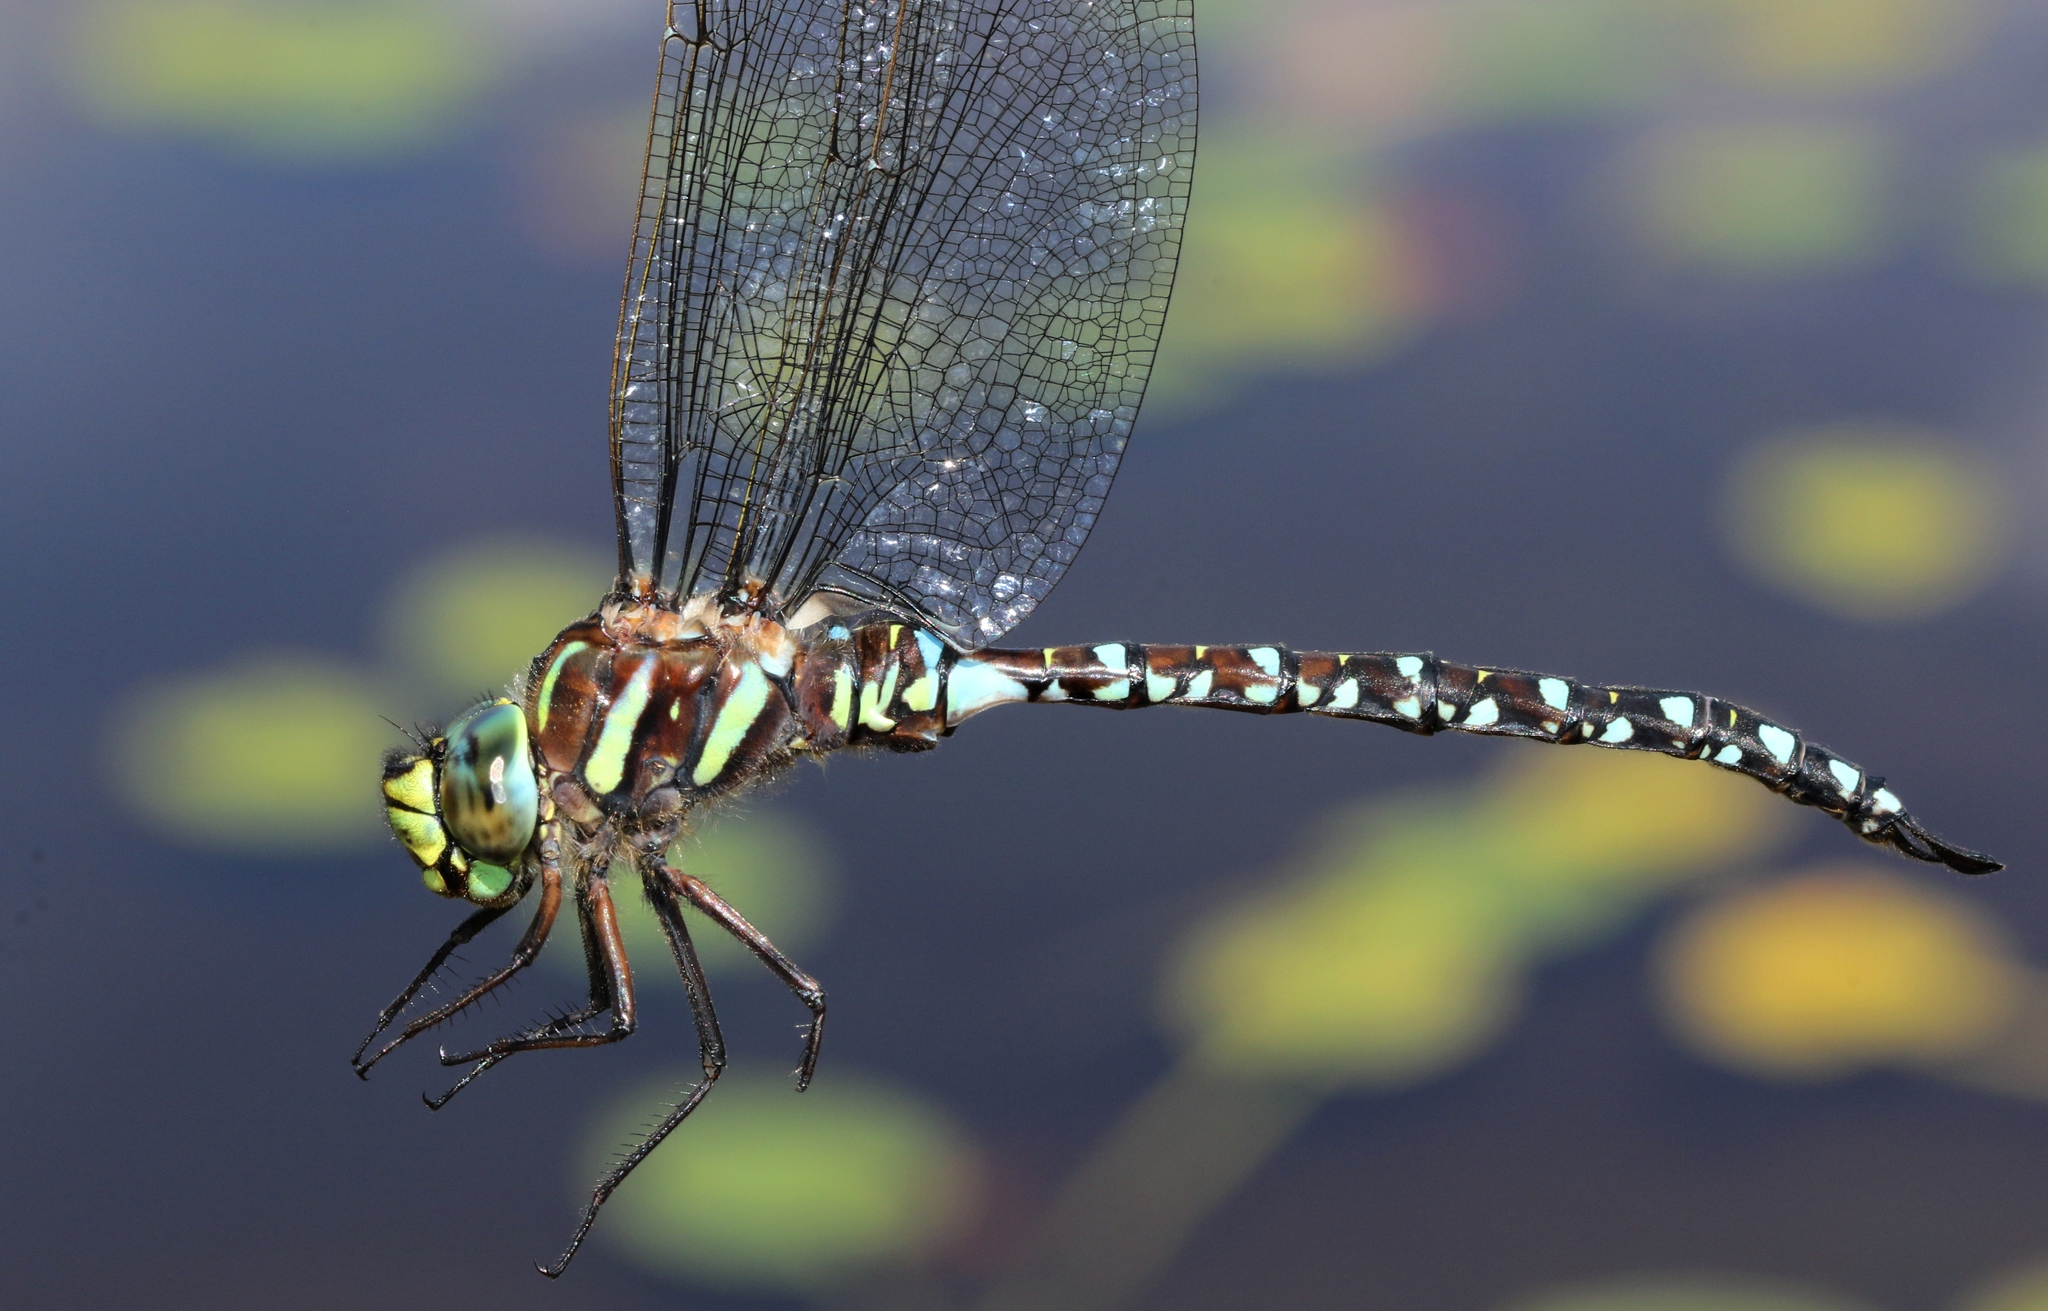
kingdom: Animalia
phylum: Arthropoda
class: Insecta
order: Odonata
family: Aeshnidae
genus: Aeshna
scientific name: Aeshna juncea
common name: Moorland hawker
